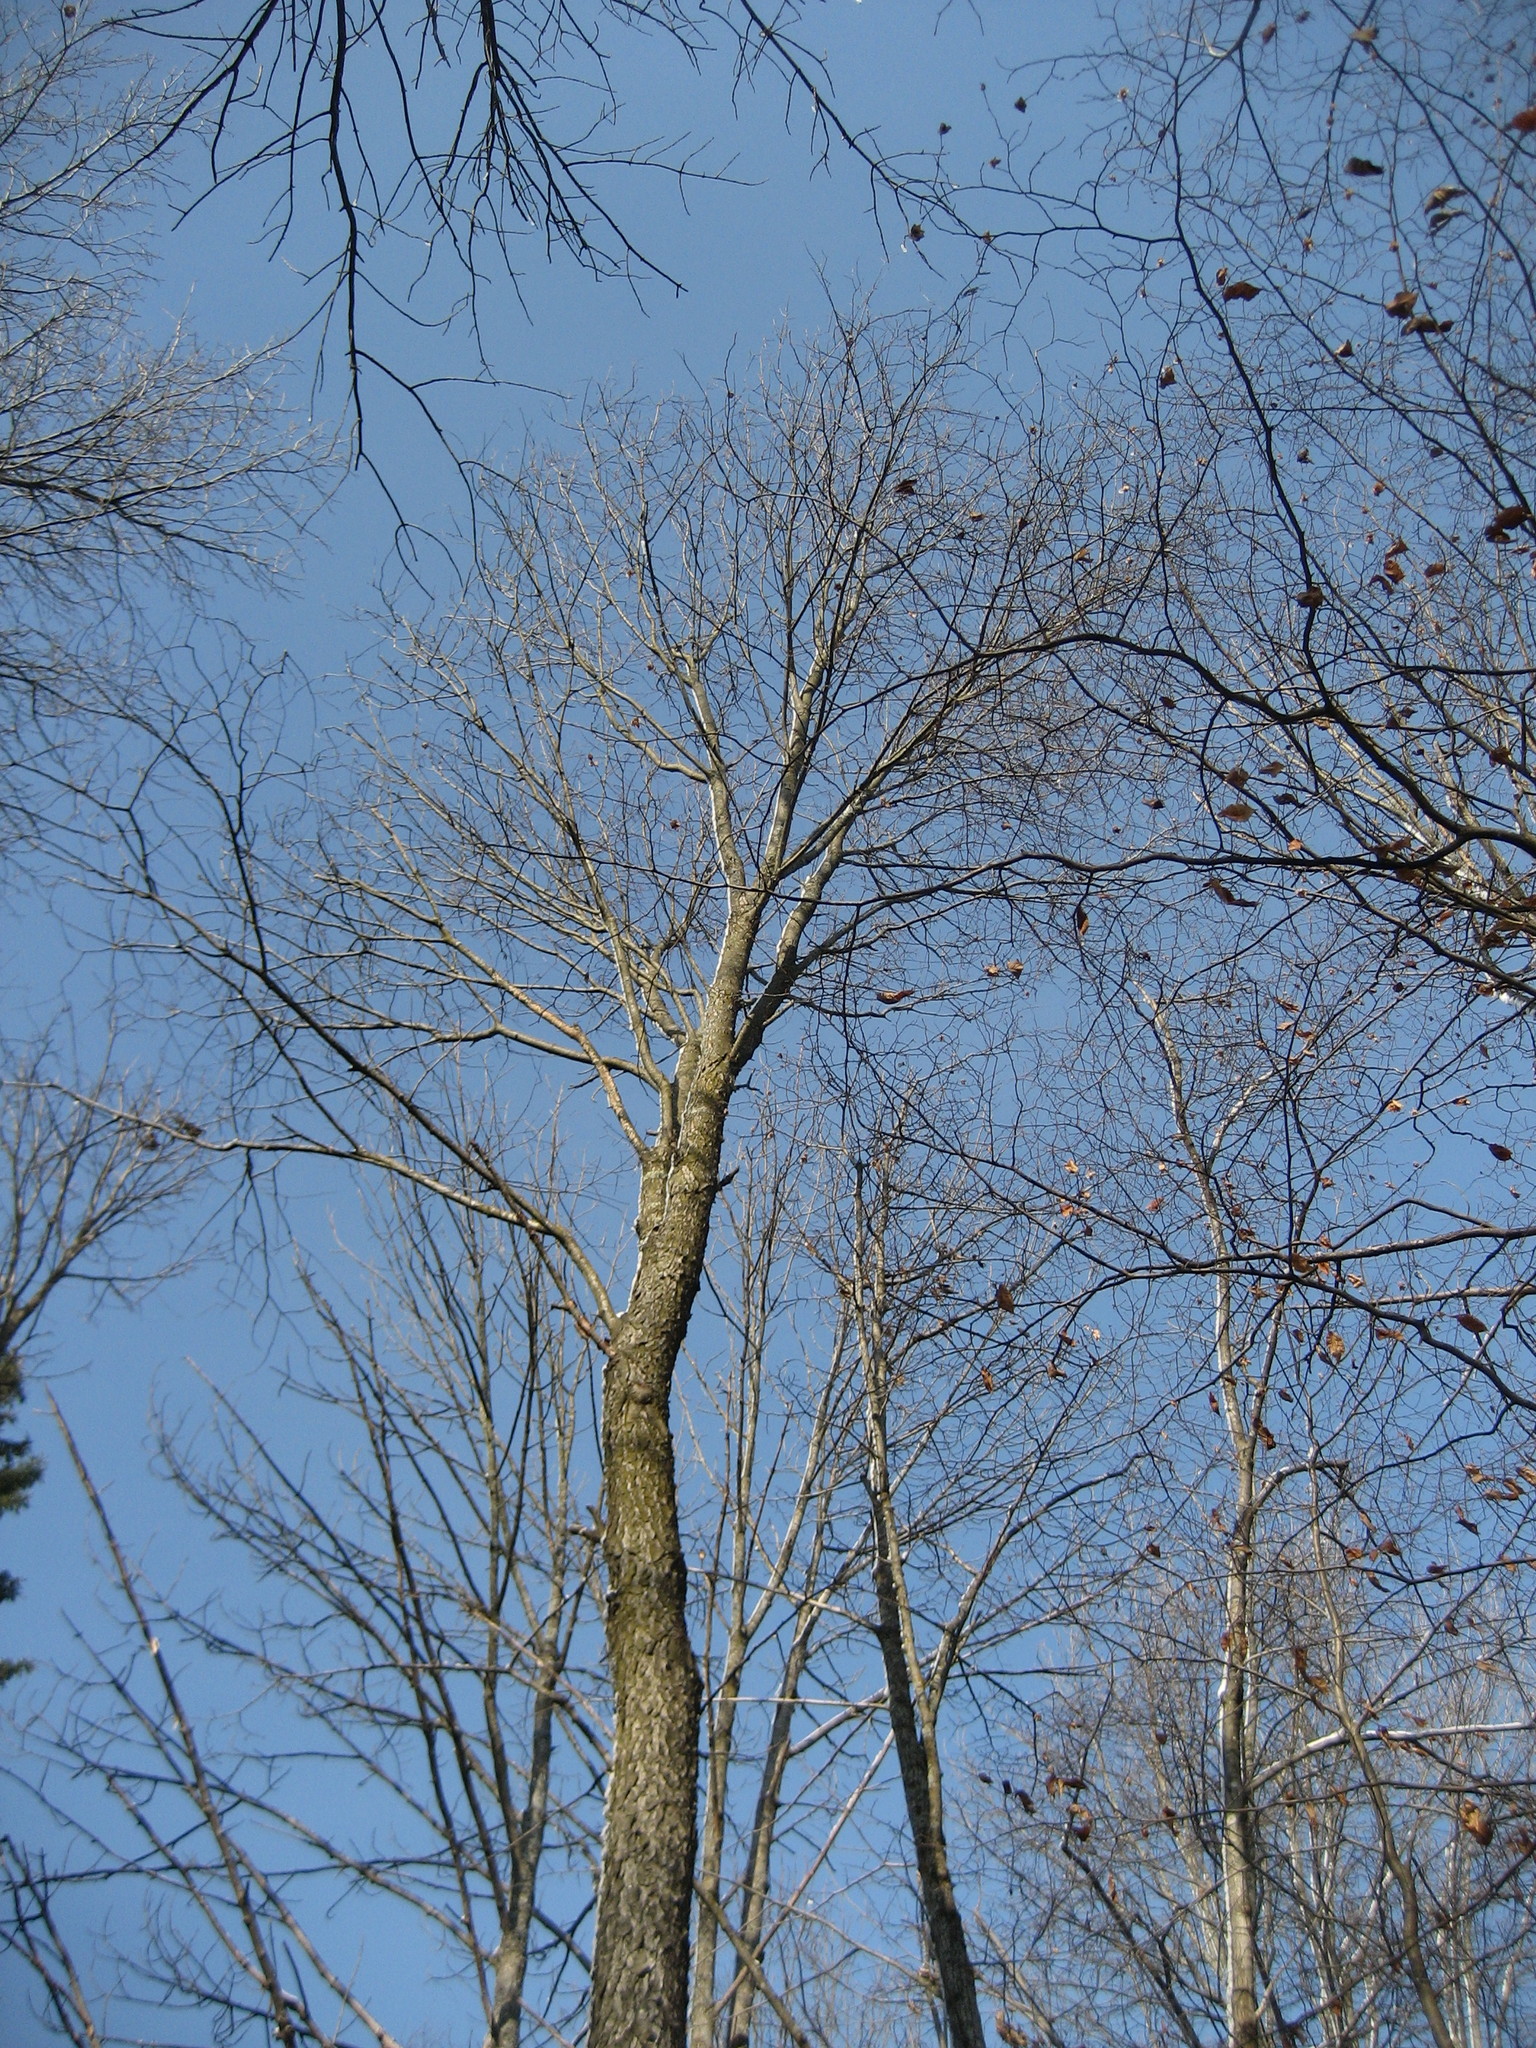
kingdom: Plantae
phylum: Tracheophyta
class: Magnoliopsida
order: Rosales
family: Rosaceae
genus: Prunus
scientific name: Prunus serotina
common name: Black cherry
